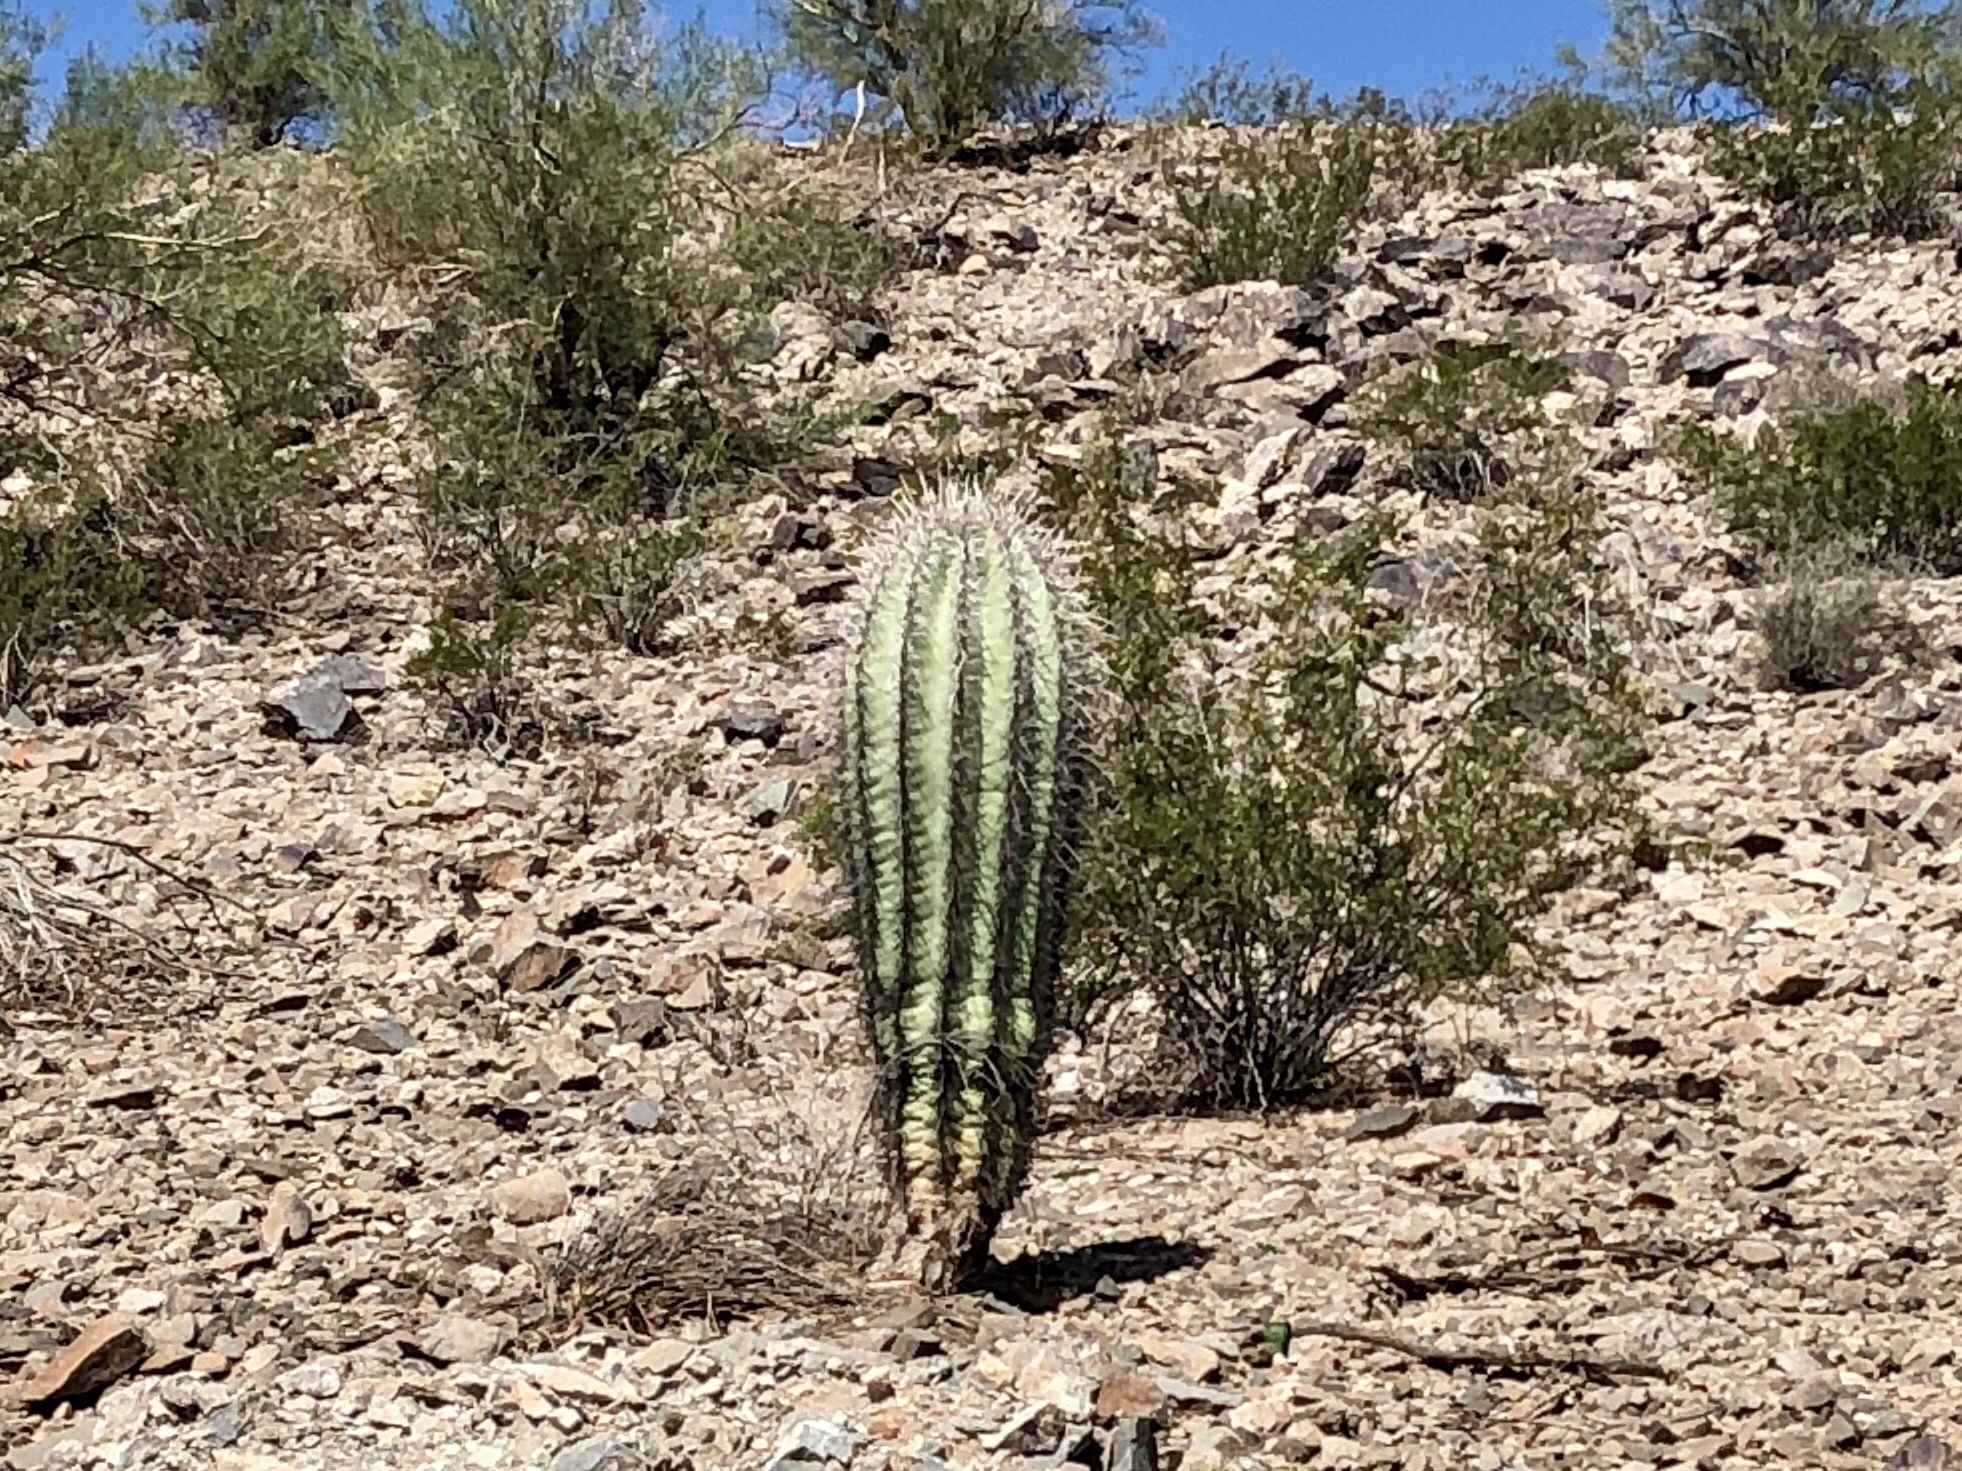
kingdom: Plantae
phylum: Tracheophyta
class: Magnoliopsida
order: Caryophyllales
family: Cactaceae
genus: Carnegiea
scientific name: Carnegiea gigantea
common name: Saguaro
